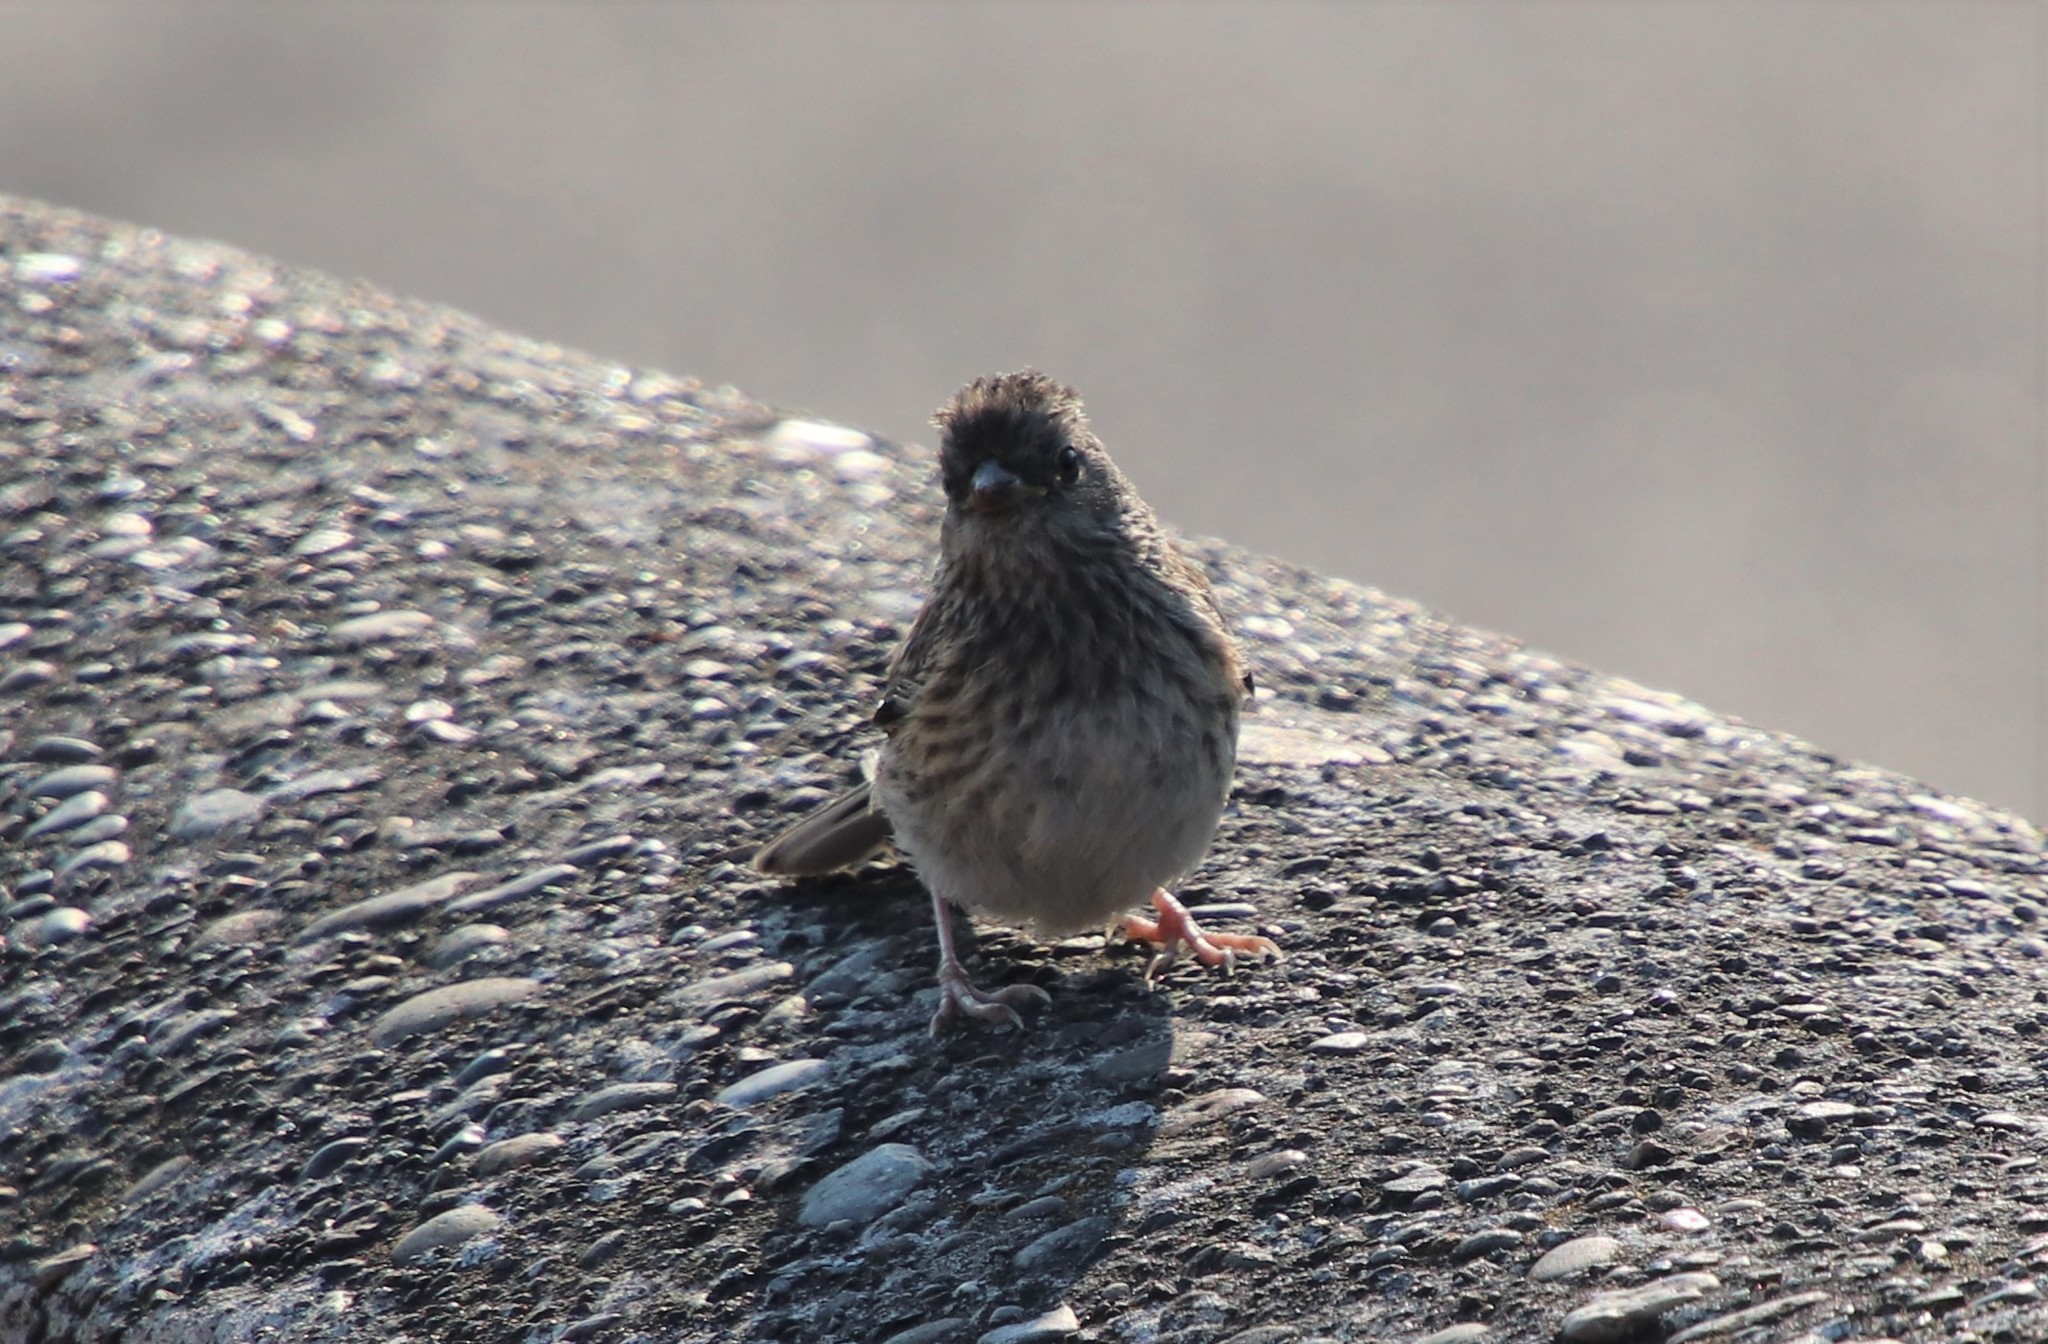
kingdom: Animalia
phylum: Chordata
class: Aves
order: Passeriformes
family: Passerellidae
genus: Junco
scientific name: Junco hyemalis
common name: Dark-eyed junco
